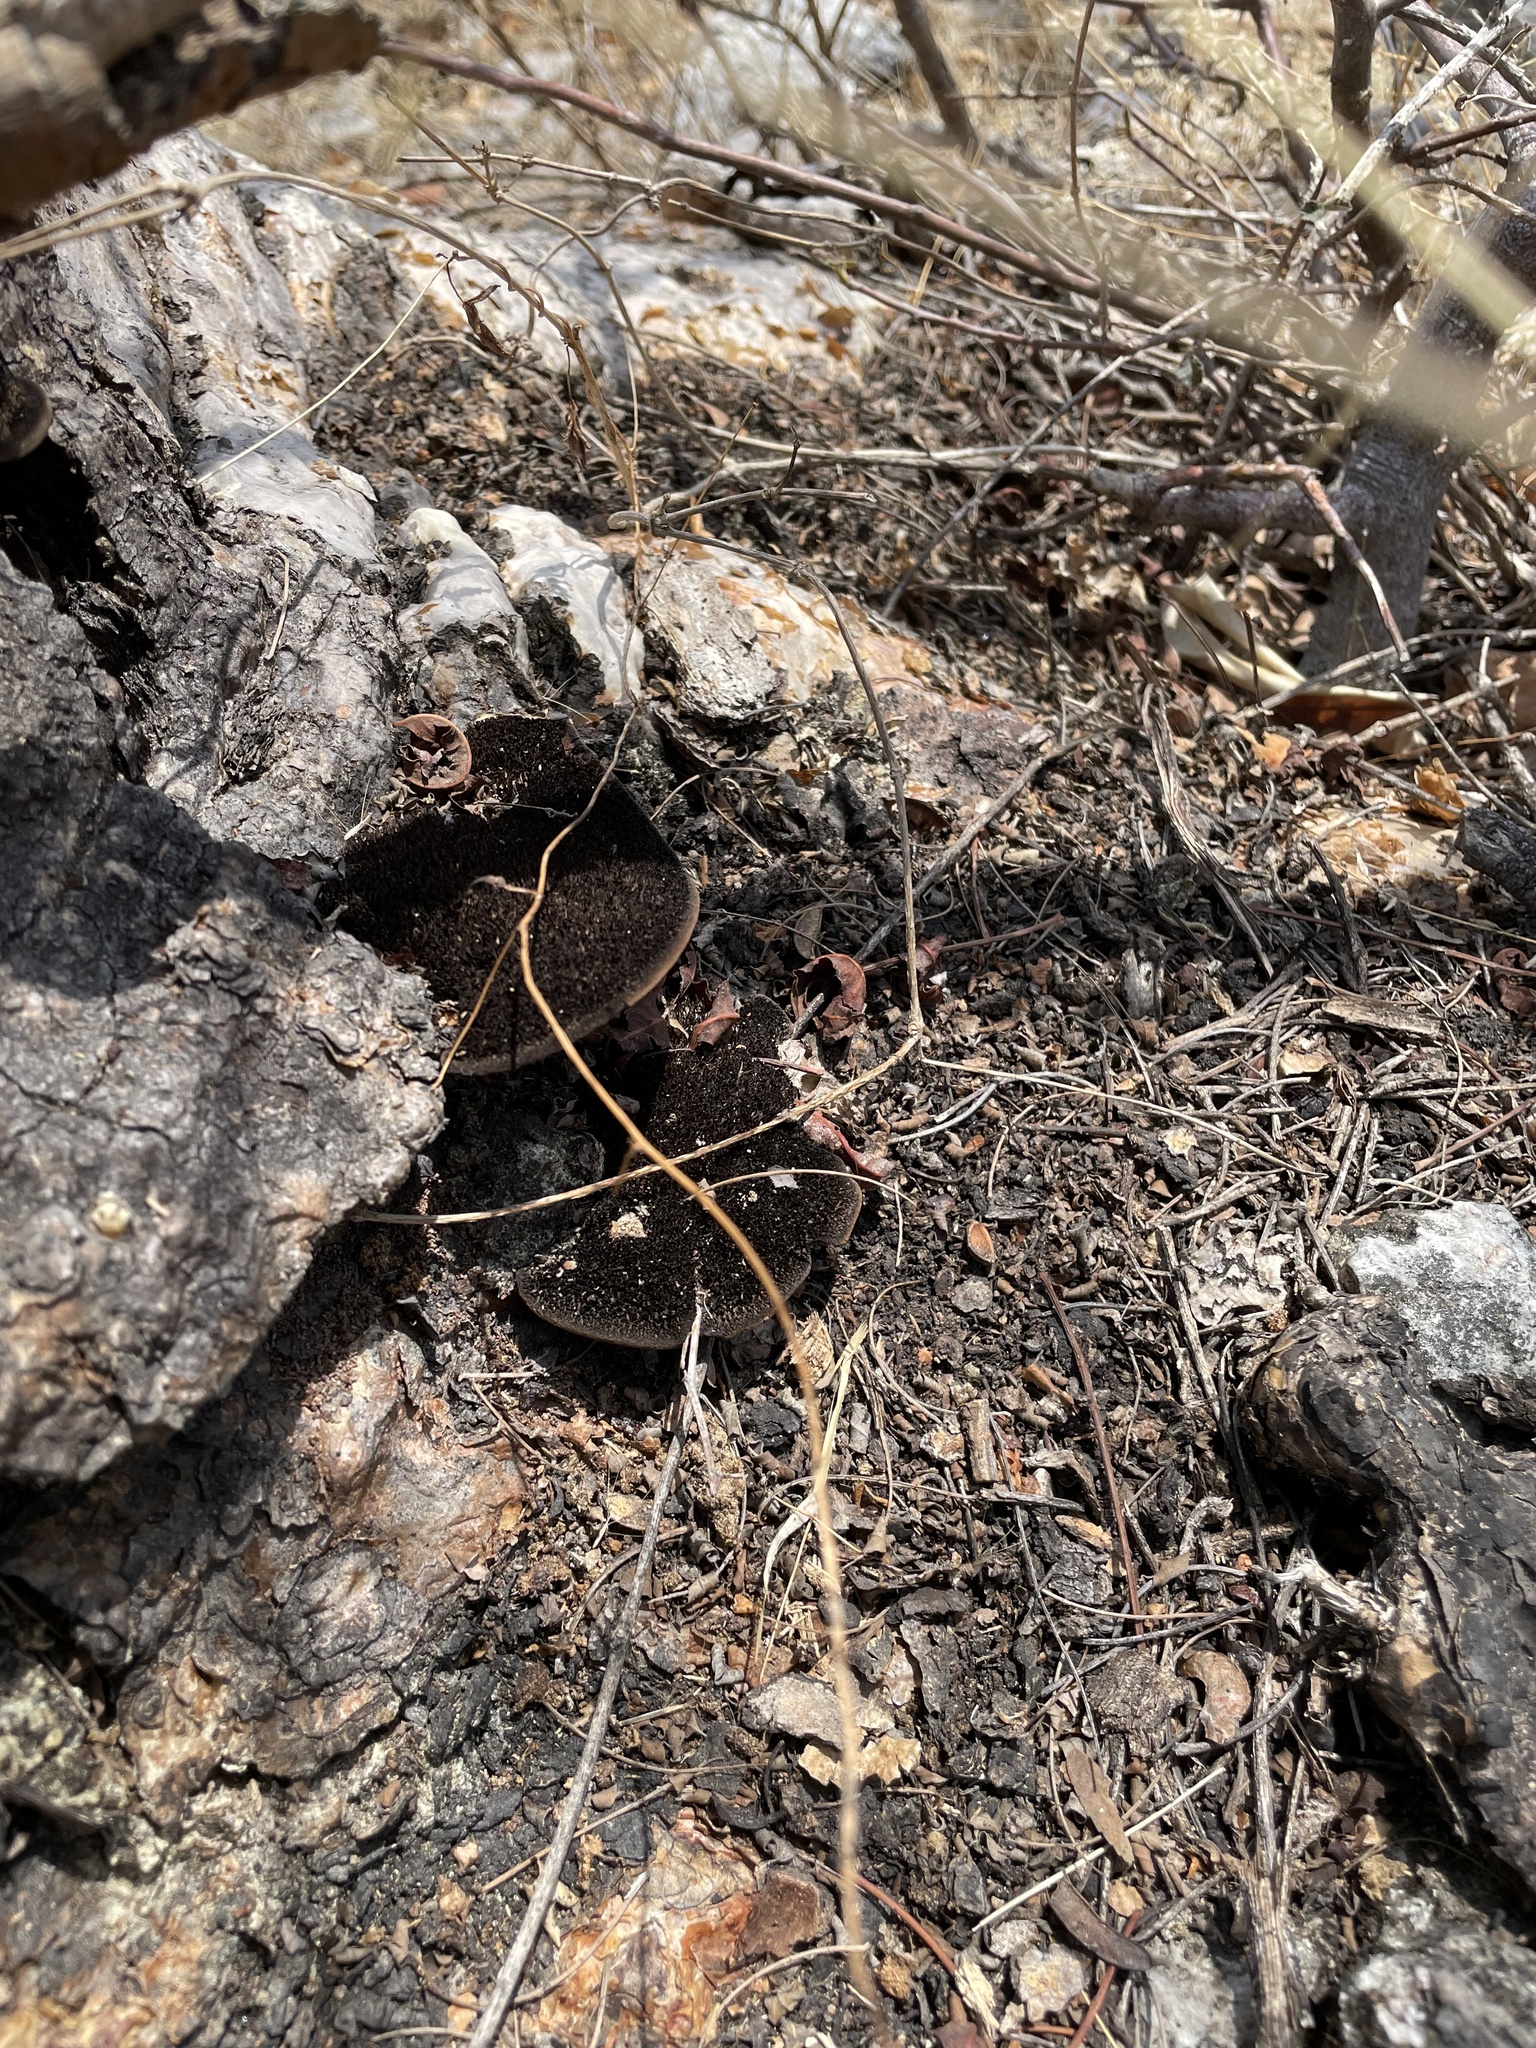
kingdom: Fungi
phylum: Basidiomycota
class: Agaricomycetes
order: Polyporales
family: Cerrenaceae
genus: Cerrena
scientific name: Cerrena hydnoides
